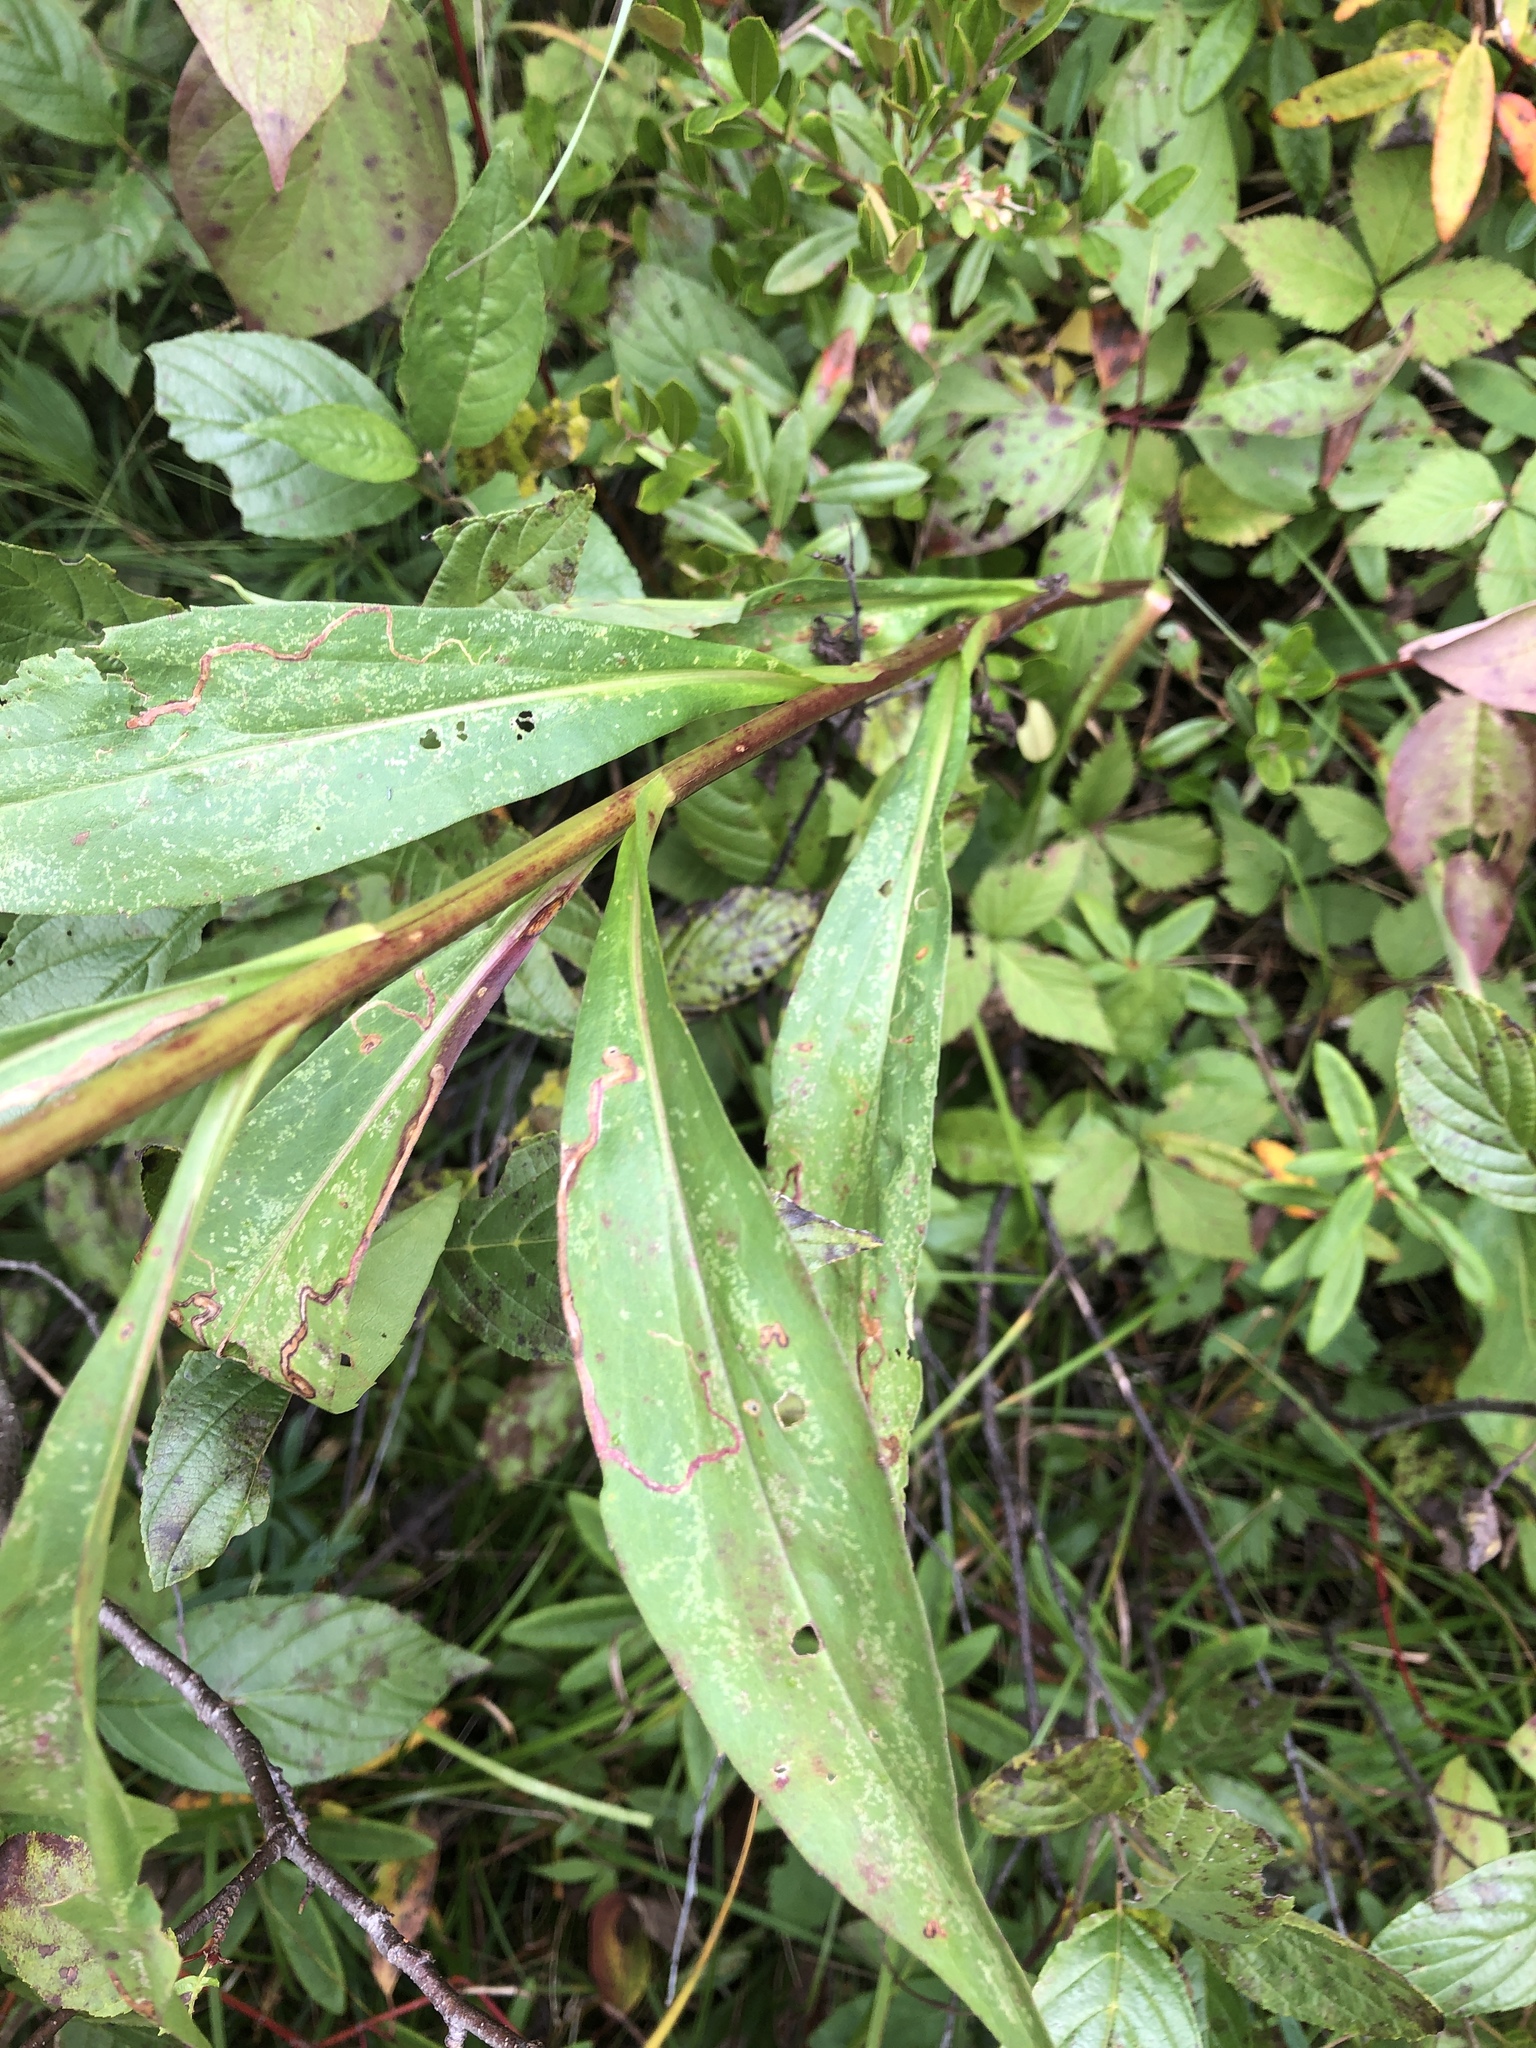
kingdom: Plantae
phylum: Tracheophyta
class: Magnoliopsida
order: Asterales
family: Asteraceae
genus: Solidago
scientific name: Solidago uliginosa
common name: Bog goldenrod
